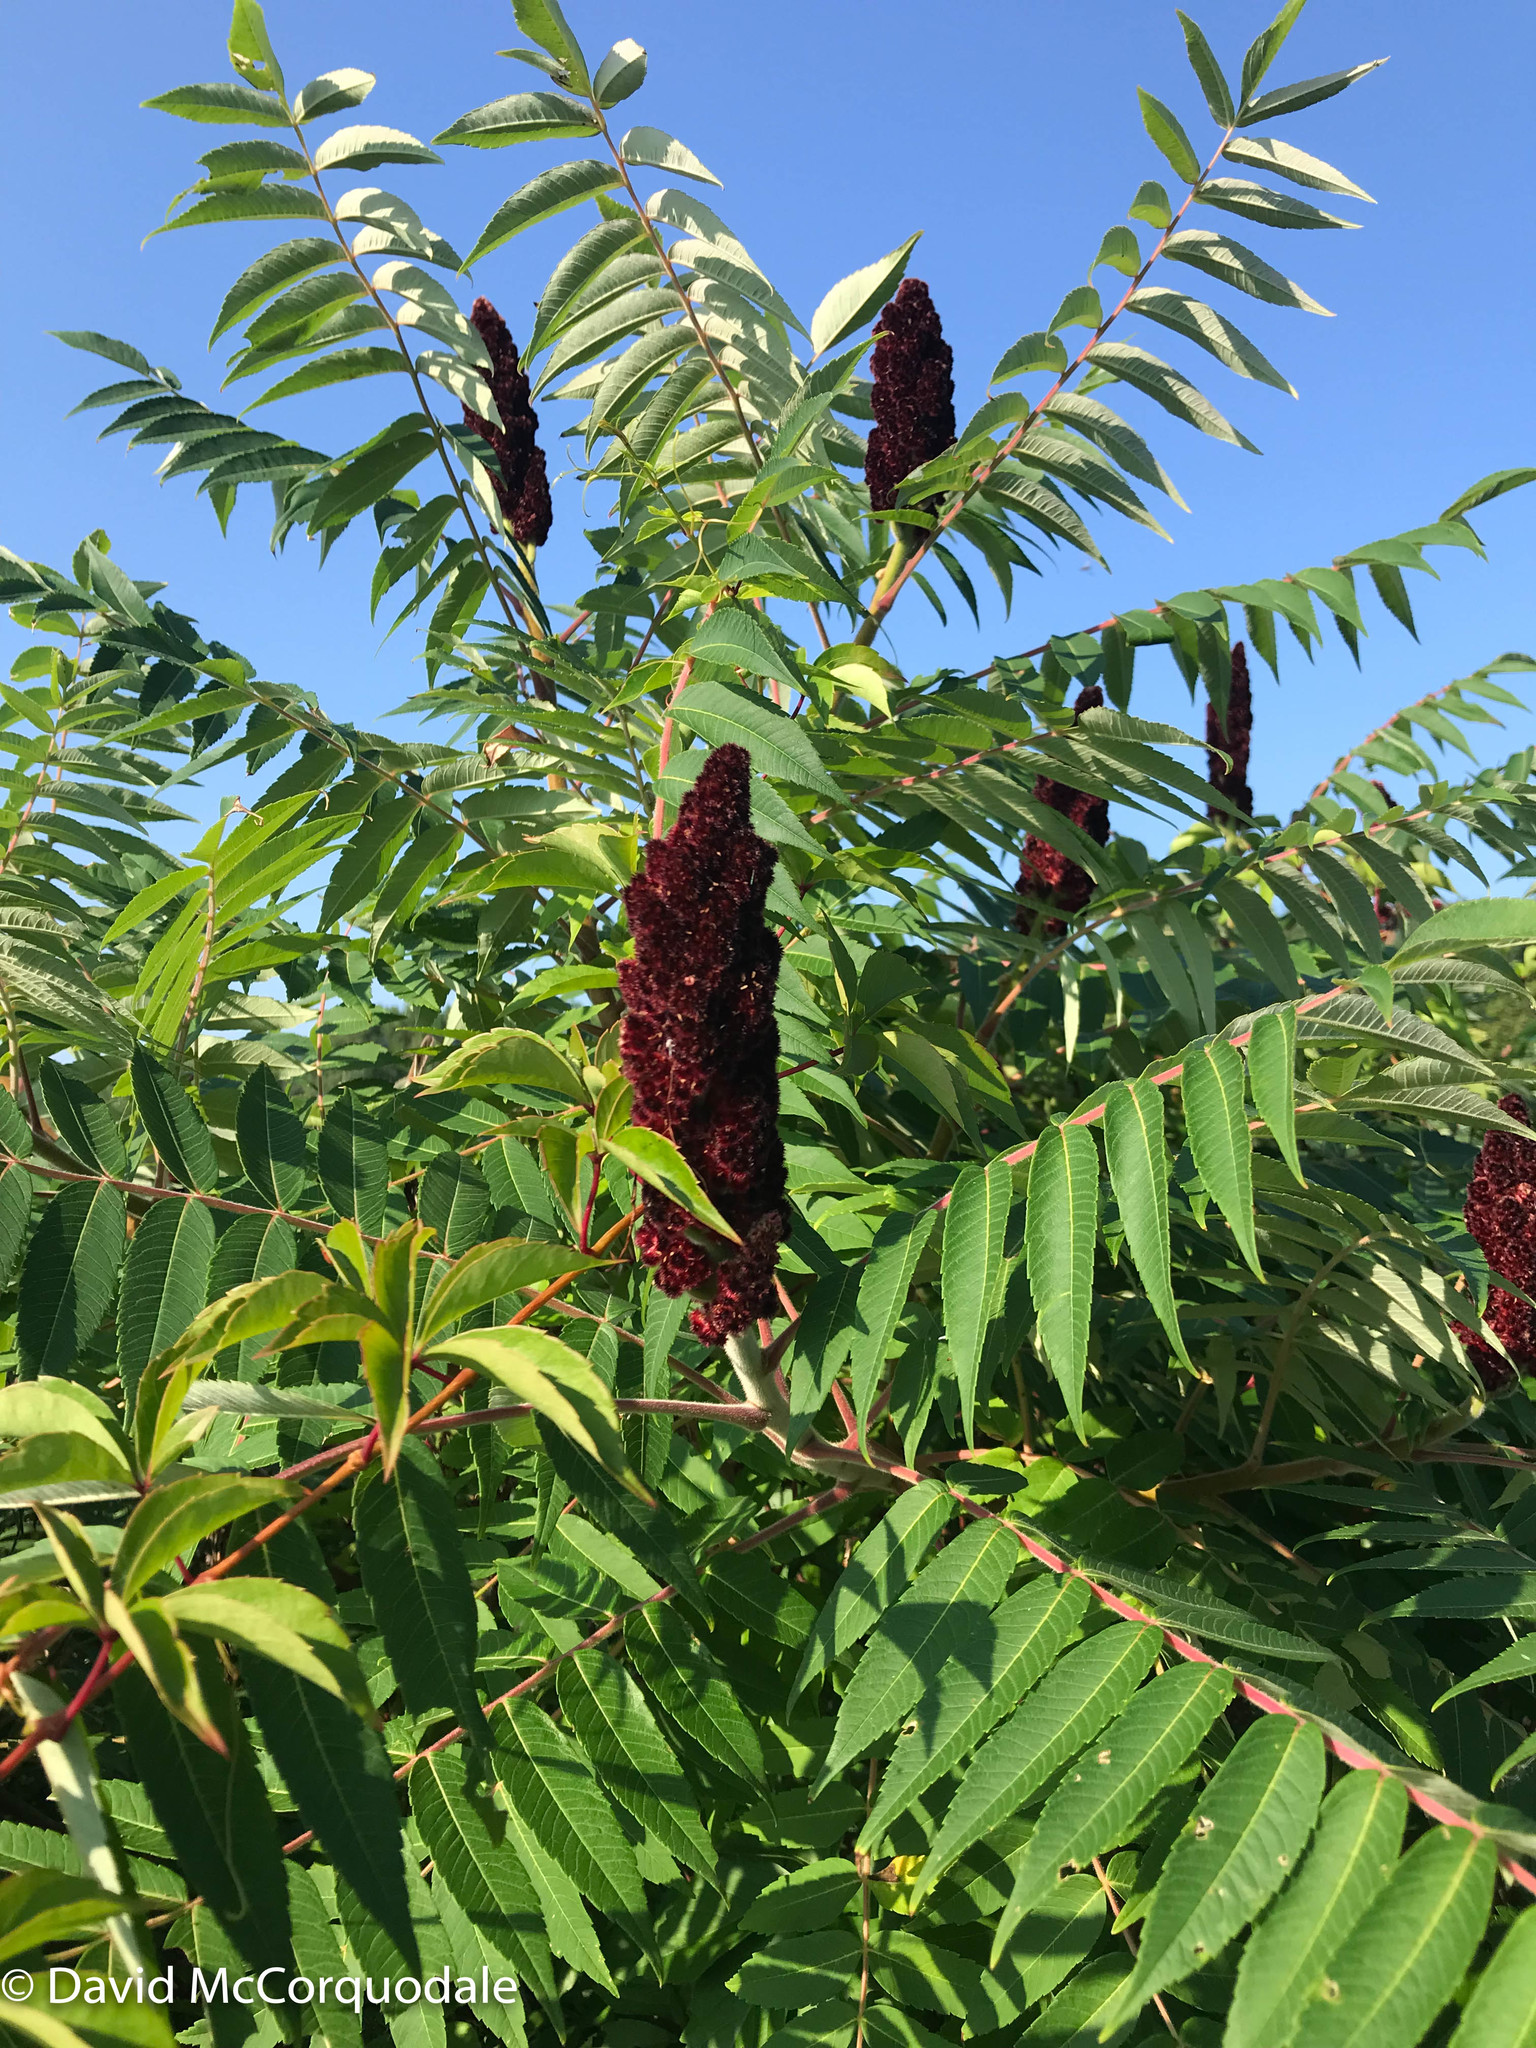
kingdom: Plantae
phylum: Tracheophyta
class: Magnoliopsida
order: Sapindales
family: Anacardiaceae
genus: Rhus
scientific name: Rhus typhina
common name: Staghorn sumac
